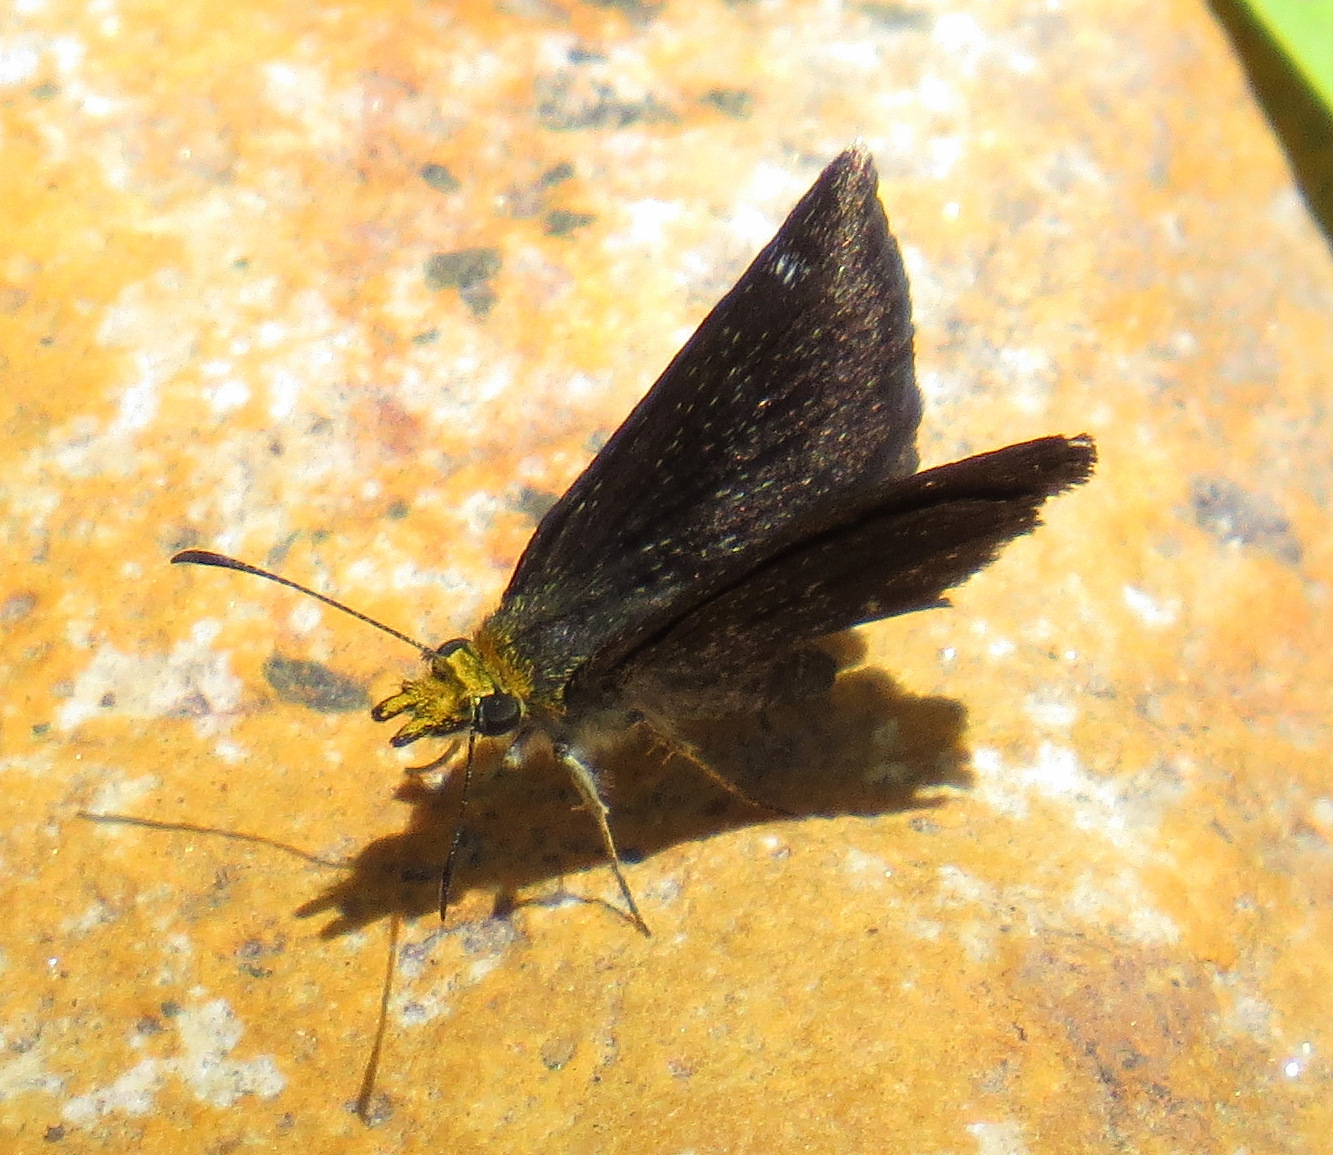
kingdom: Animalia
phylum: Arthropoda
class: Insecta
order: Lepidoptera
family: Hesperiidae
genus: Staphylus
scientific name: Staphylus ceos
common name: Golden-headed scallopwing
